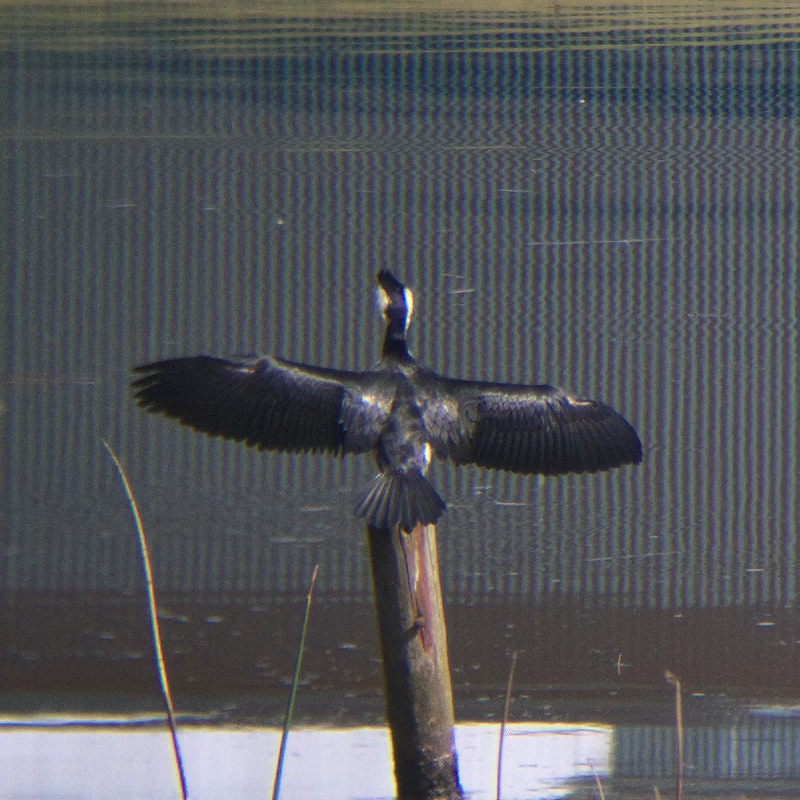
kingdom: Animalia
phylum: Chordata
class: Aves
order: Suliformes
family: Phalacrocoracidae
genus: Microcarbo
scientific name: Microcarbo melanoleucos
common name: Little pied cormorant
